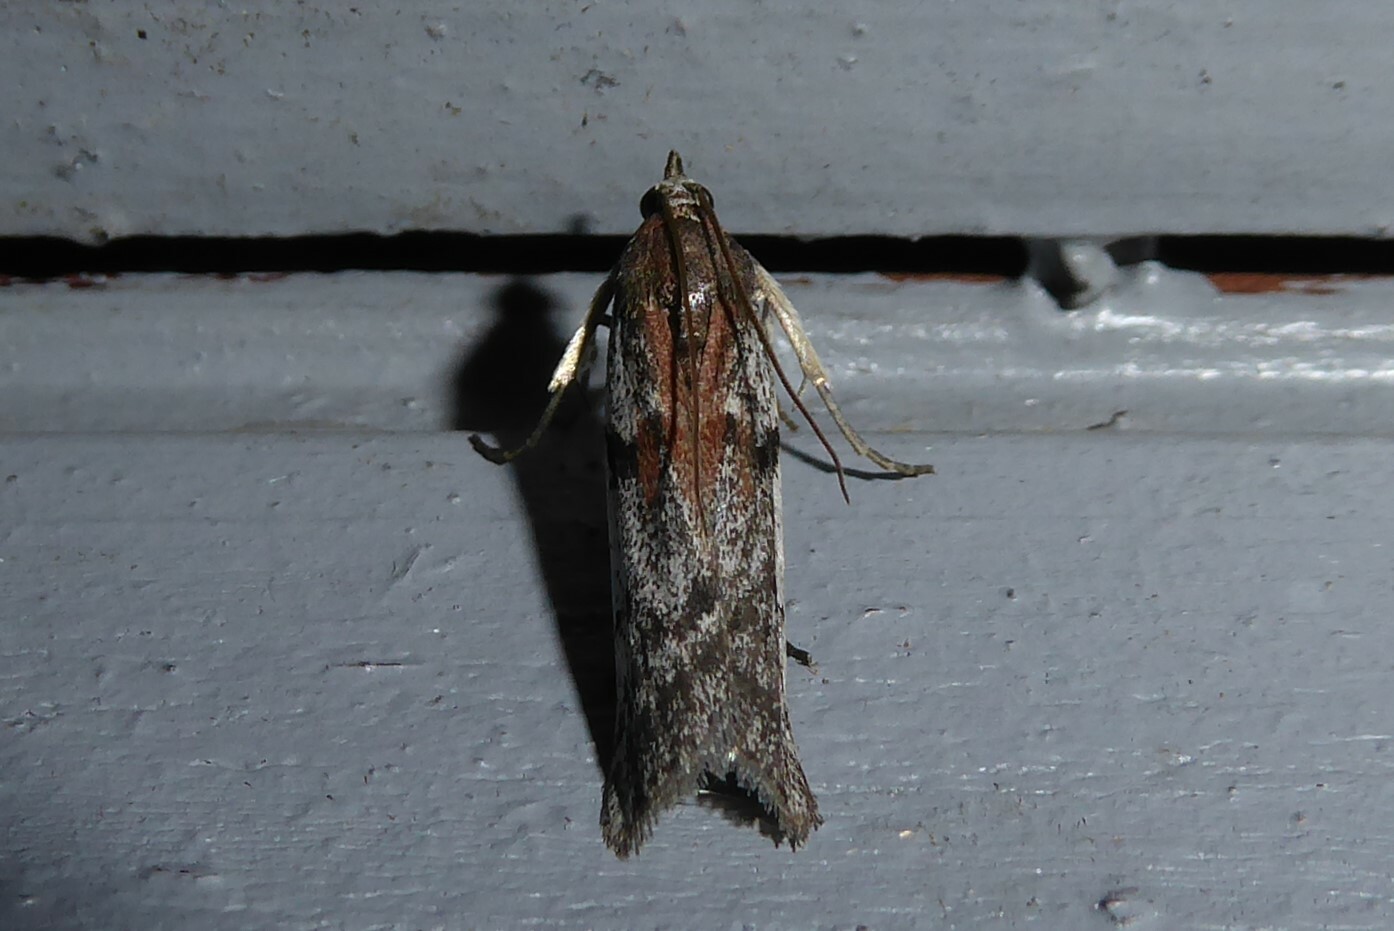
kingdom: Animalia
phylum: Arthropoda
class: Insecta
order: Lepidoptera
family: Pyralidae
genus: Patagoniodes
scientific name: Patagoniodes farinaria
